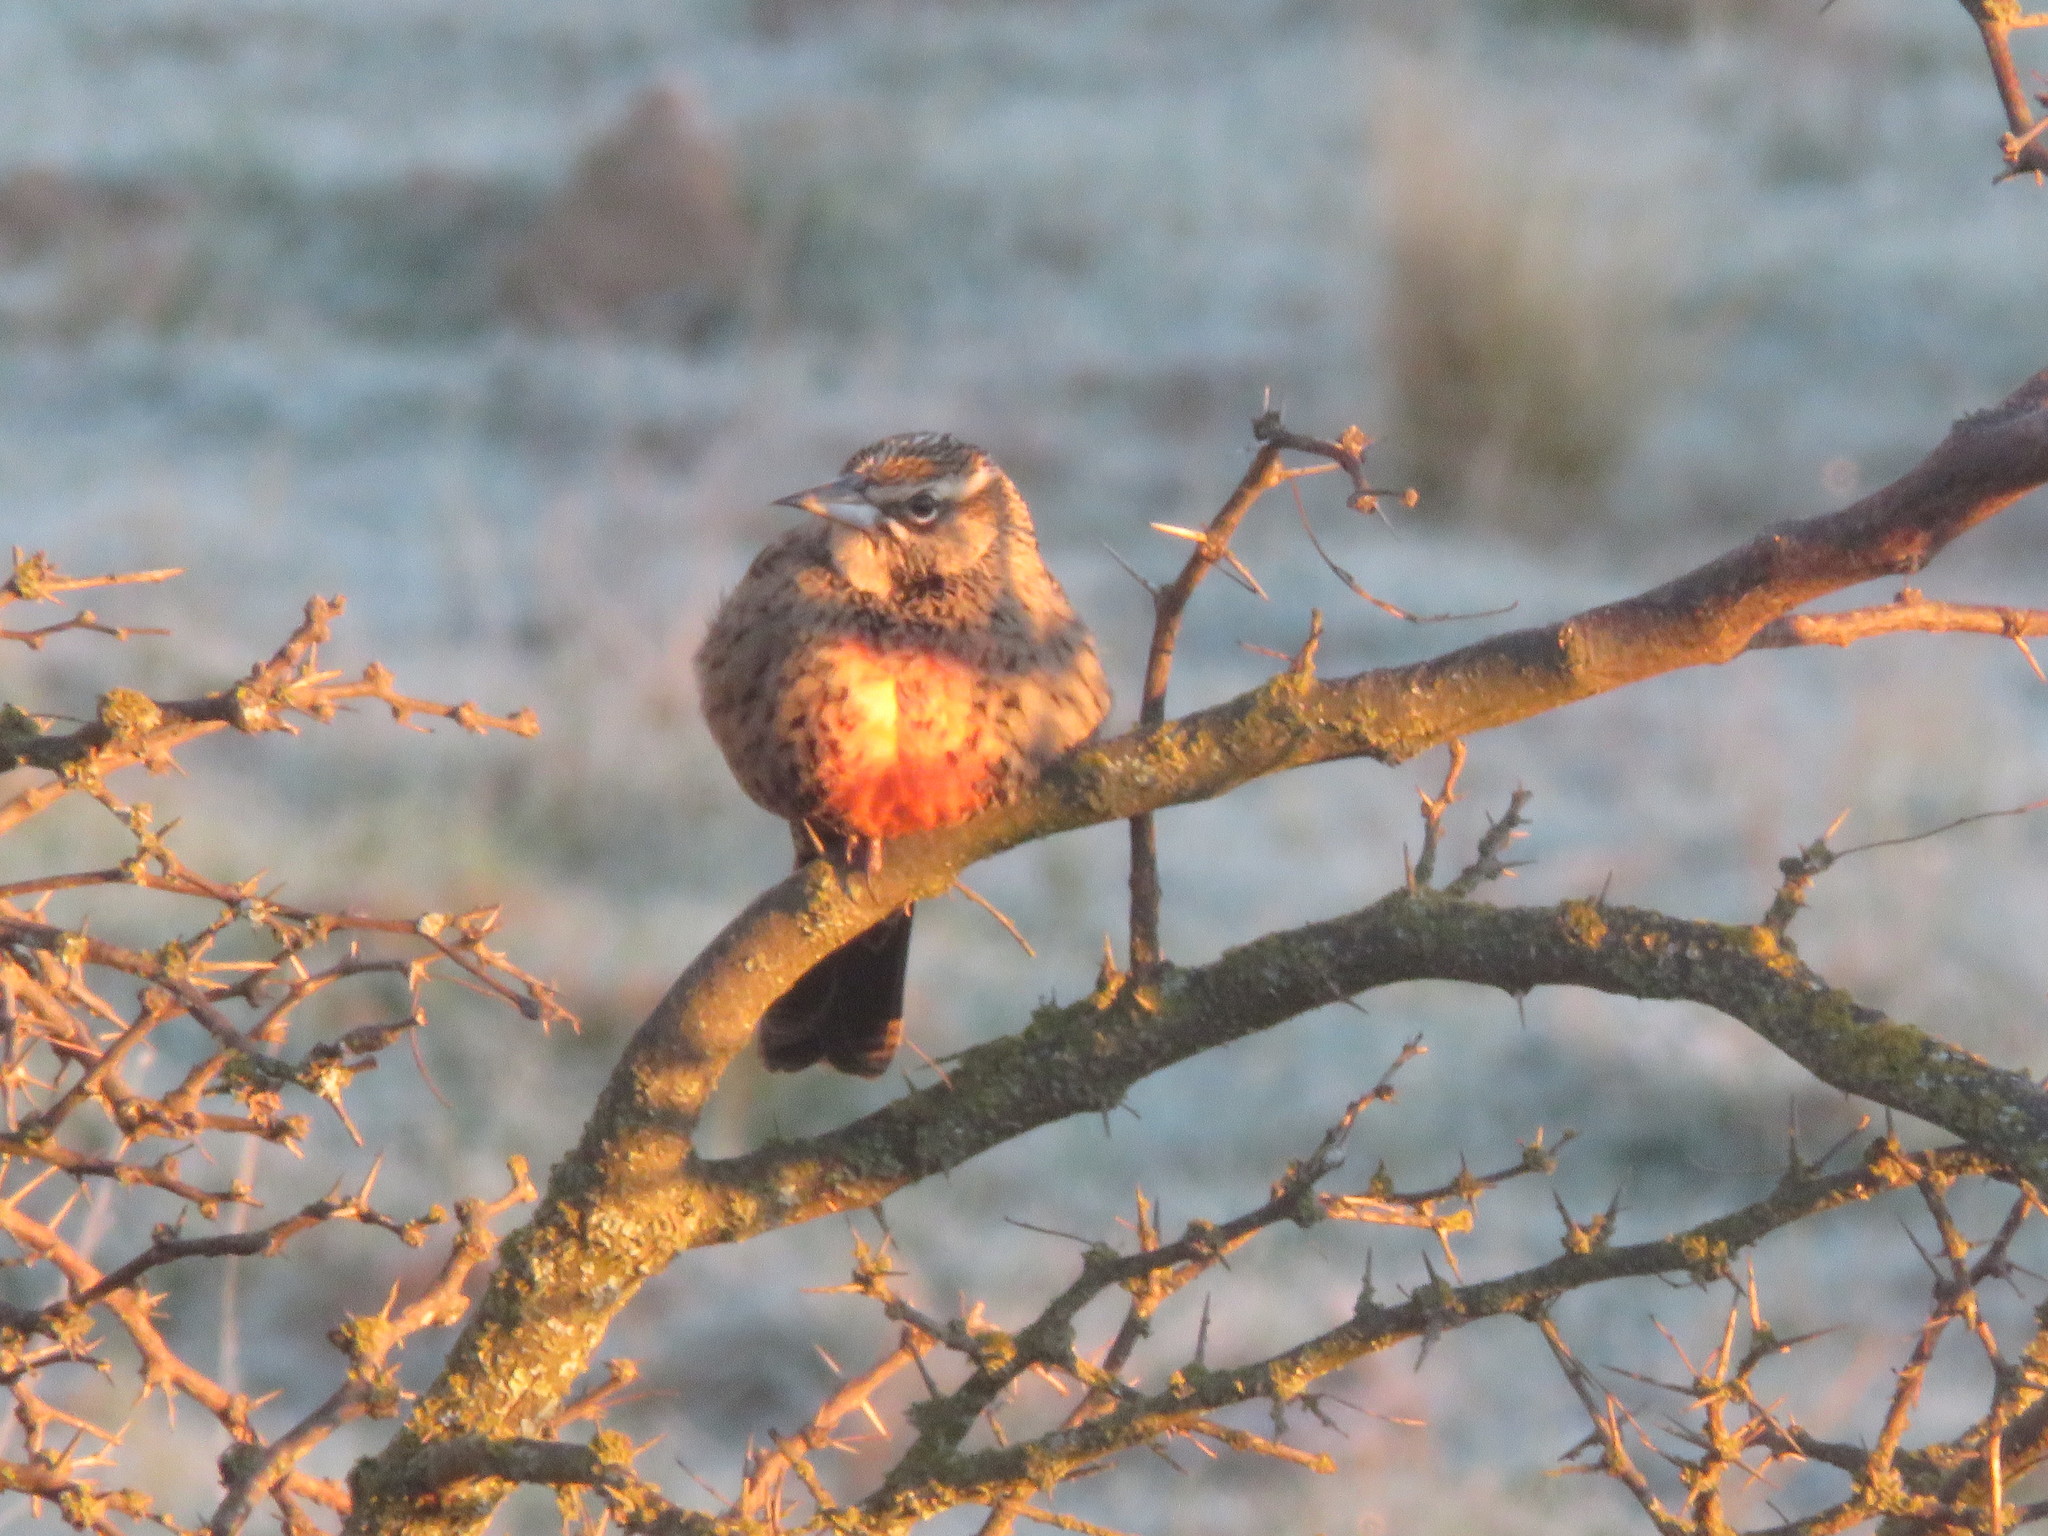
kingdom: Animalia
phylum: Chordata
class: Aves
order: Passeriformes
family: Icteridae
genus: Sturnella
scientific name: Sturnella loyca
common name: Long-tailed meadowlark
